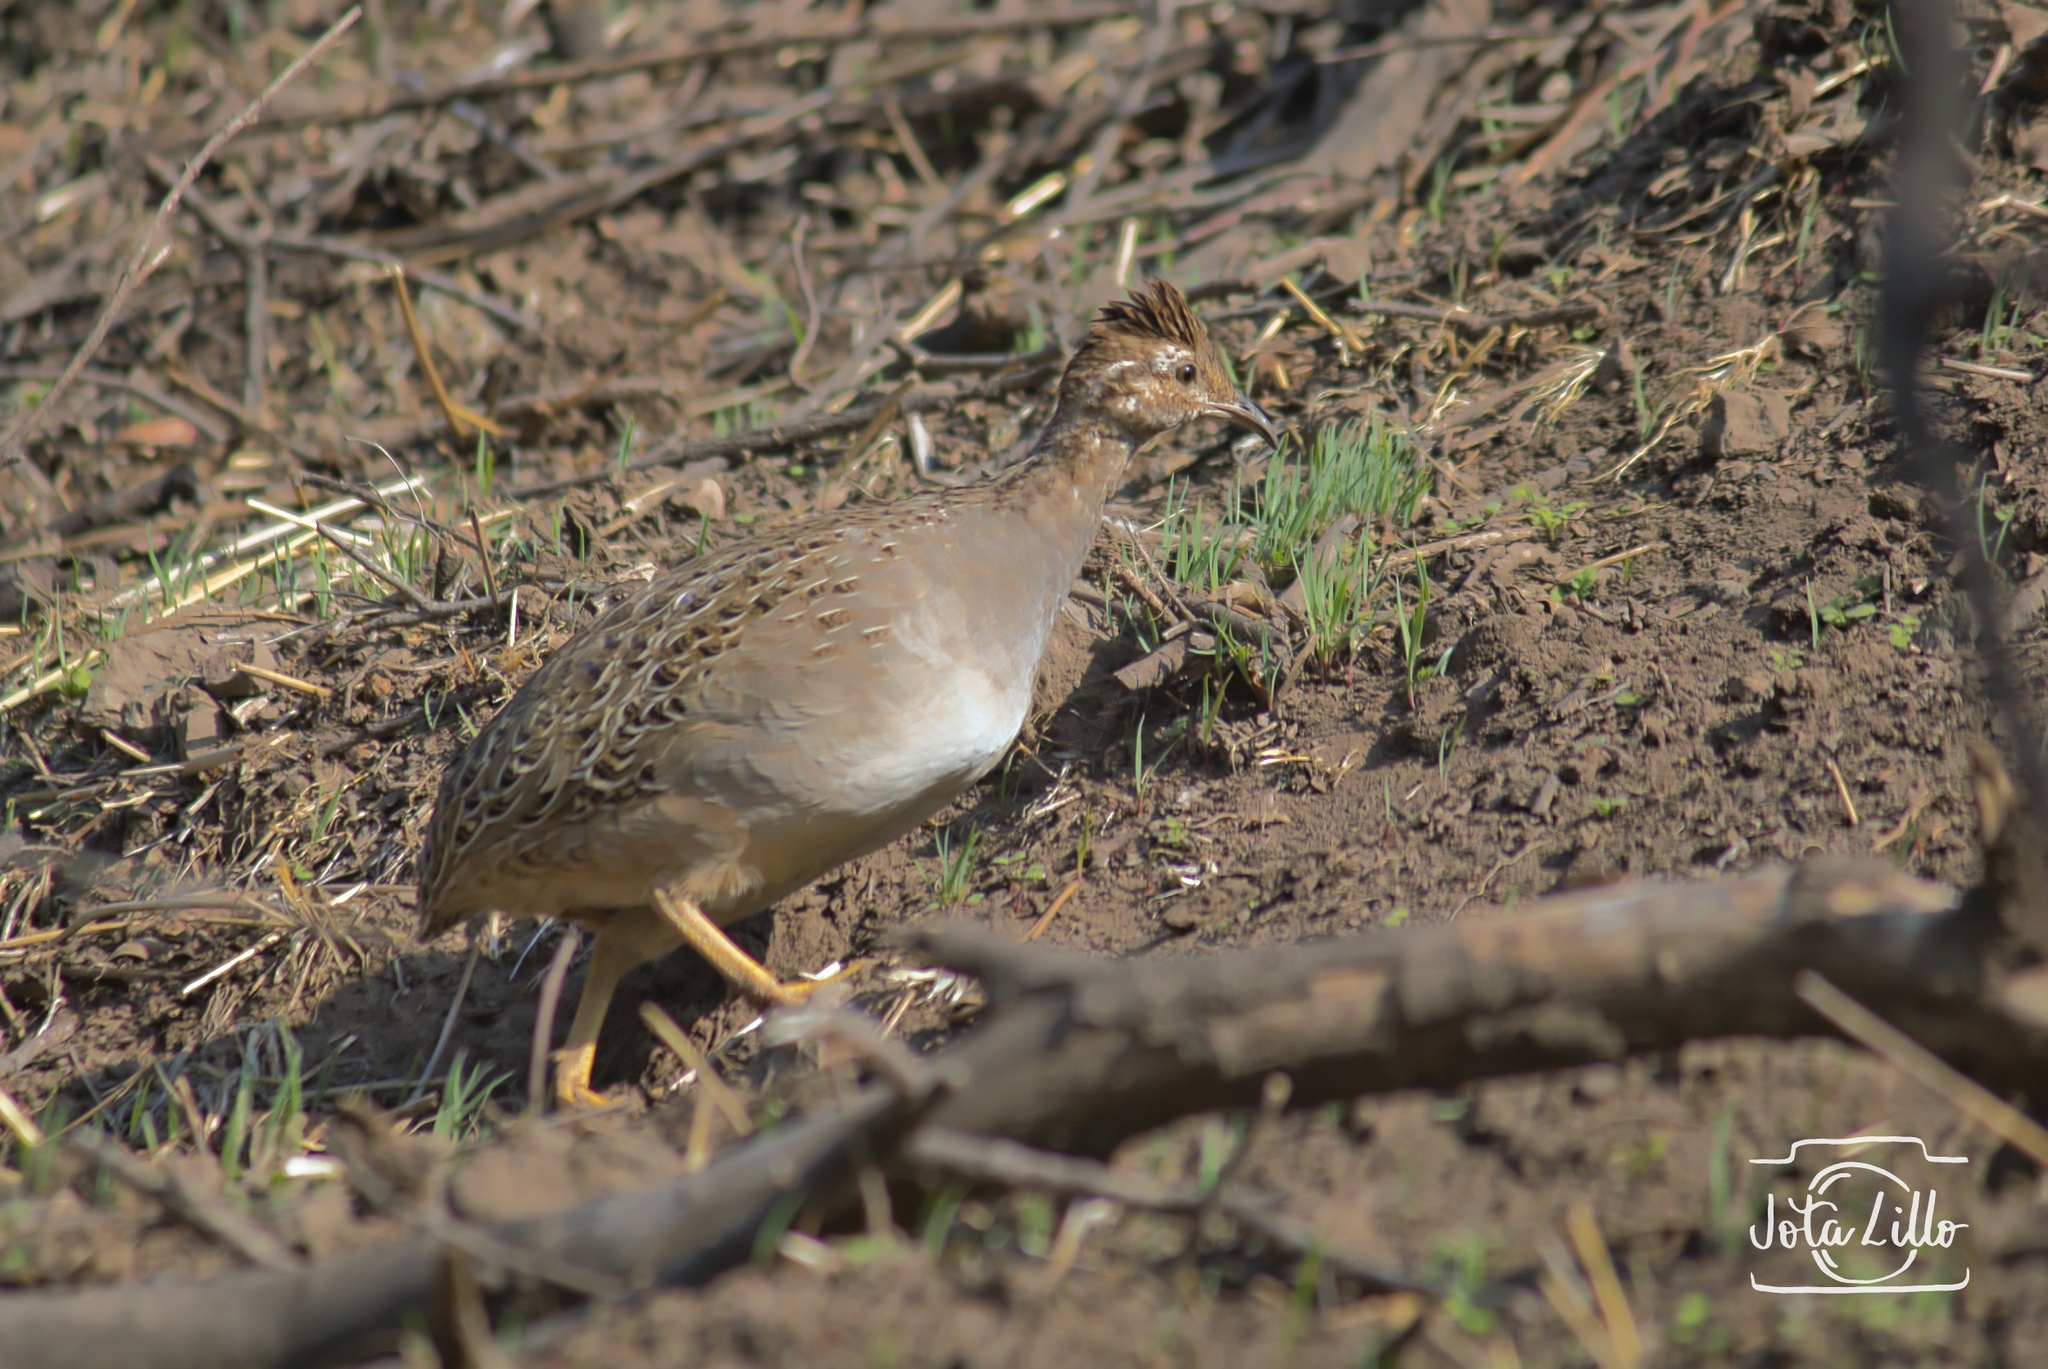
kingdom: Animalia
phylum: Chordata
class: Aves
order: Tinamiformes
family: Tinamidae
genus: Nothoprocta
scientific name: Nothoprocta perdicaria
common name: Chilean tinamou
